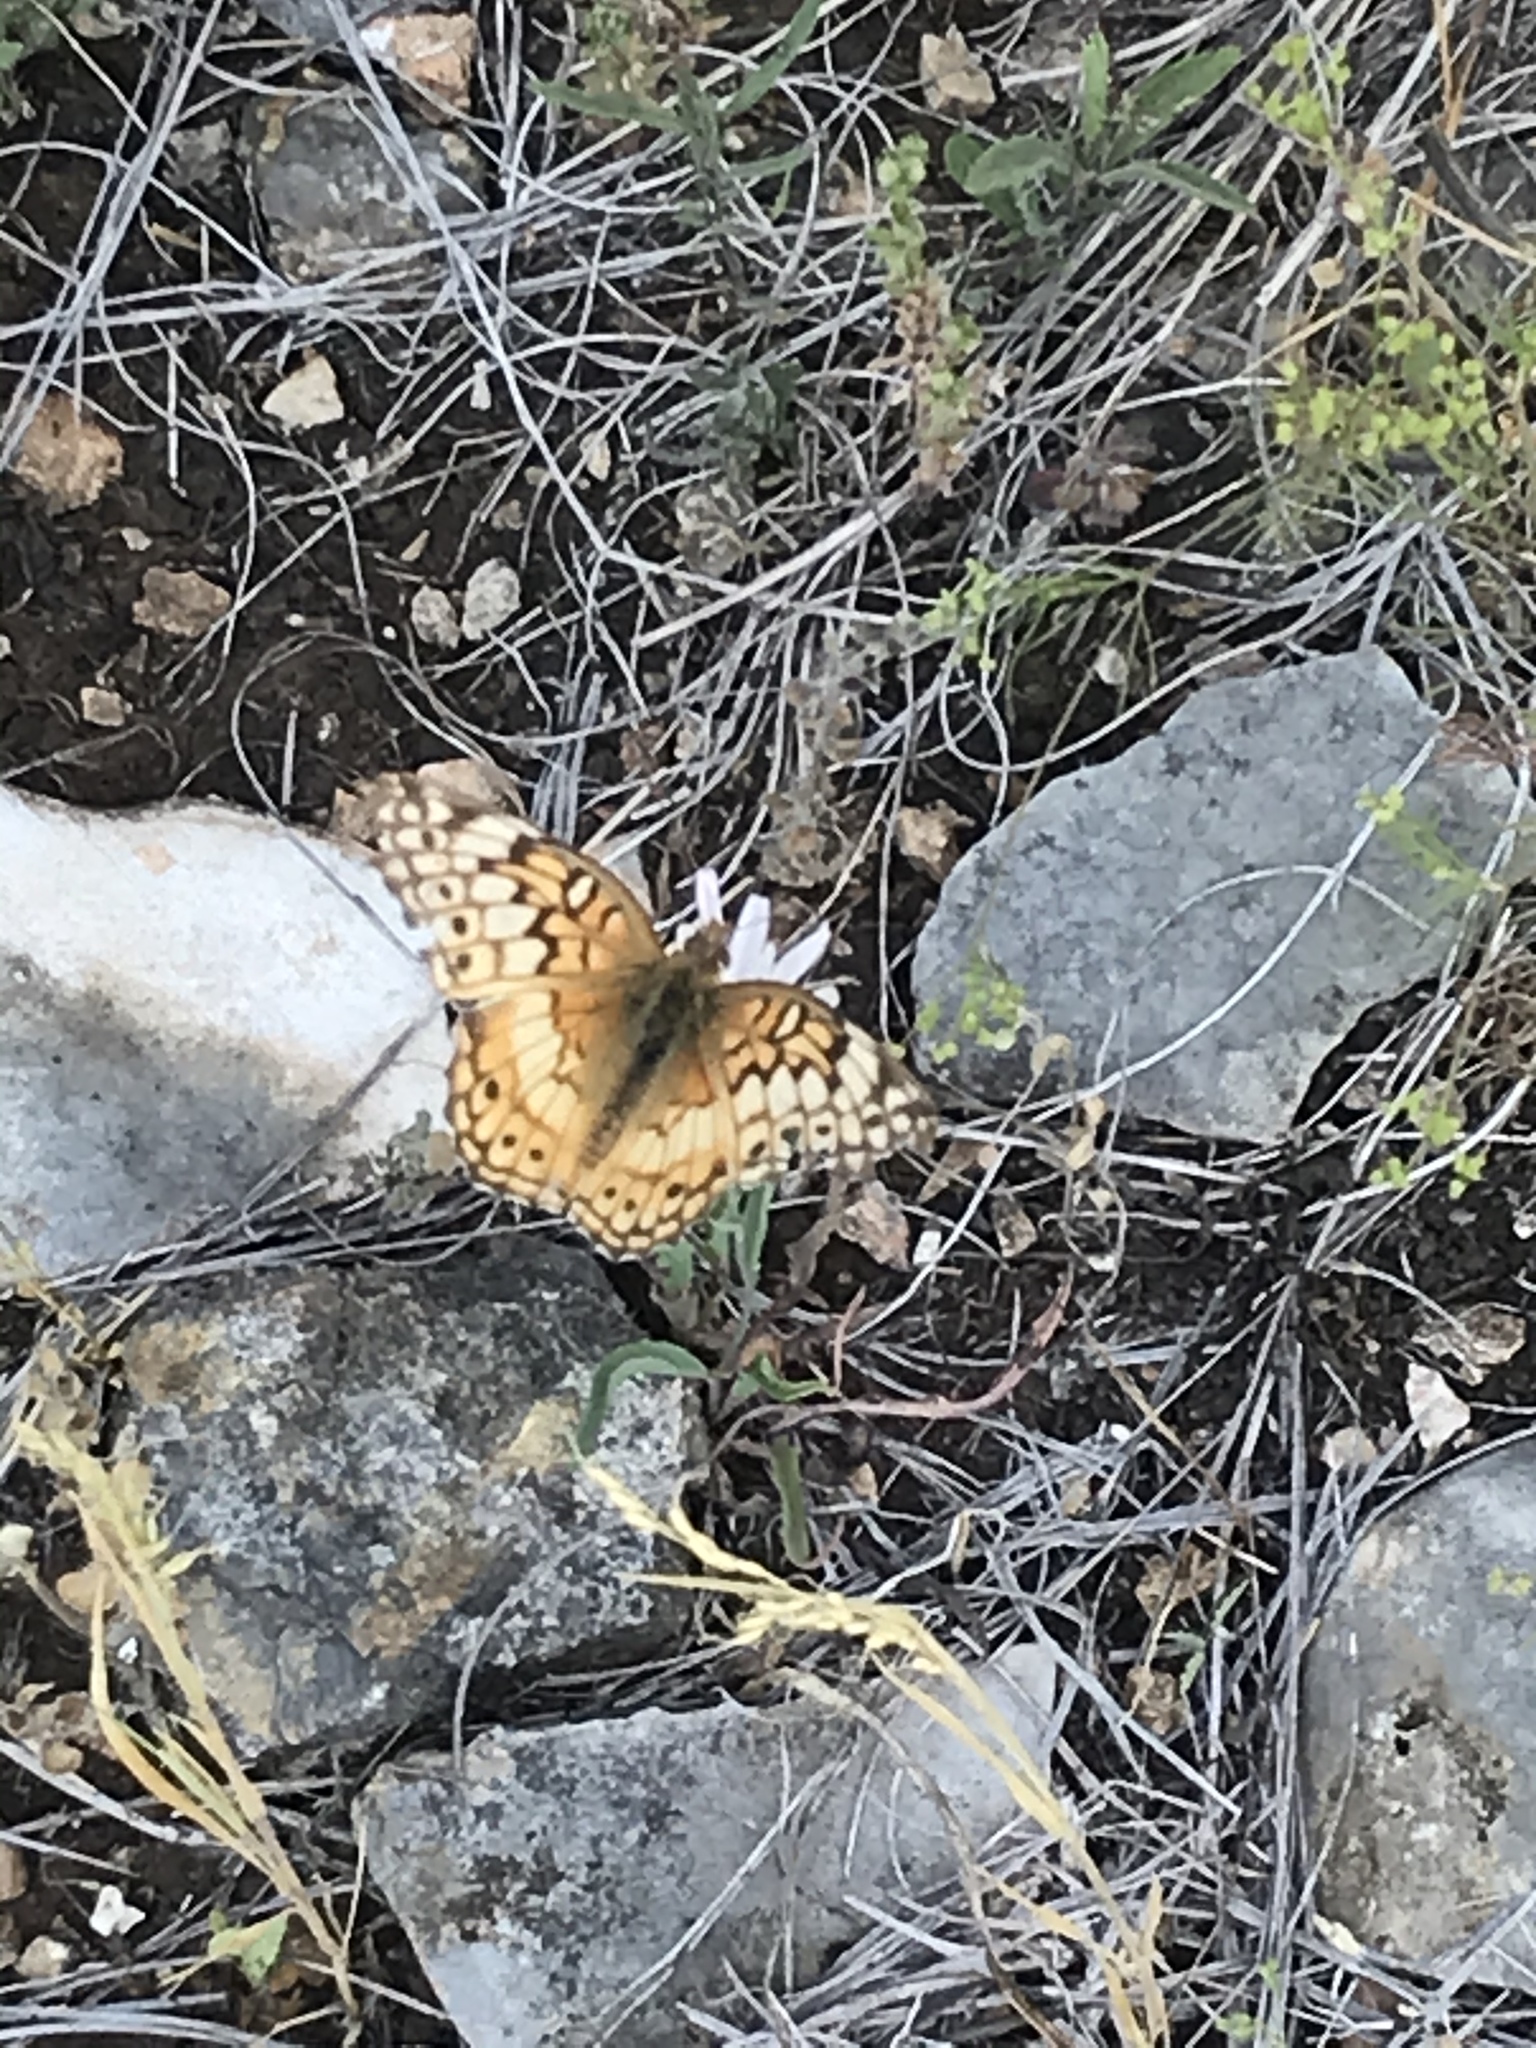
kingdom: Animalia
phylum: Arthropoda
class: Insecta
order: Lepidoptera
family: Nymphalidae
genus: Euptoieta
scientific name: Euptoieta claudia
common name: Variegated fritillary
